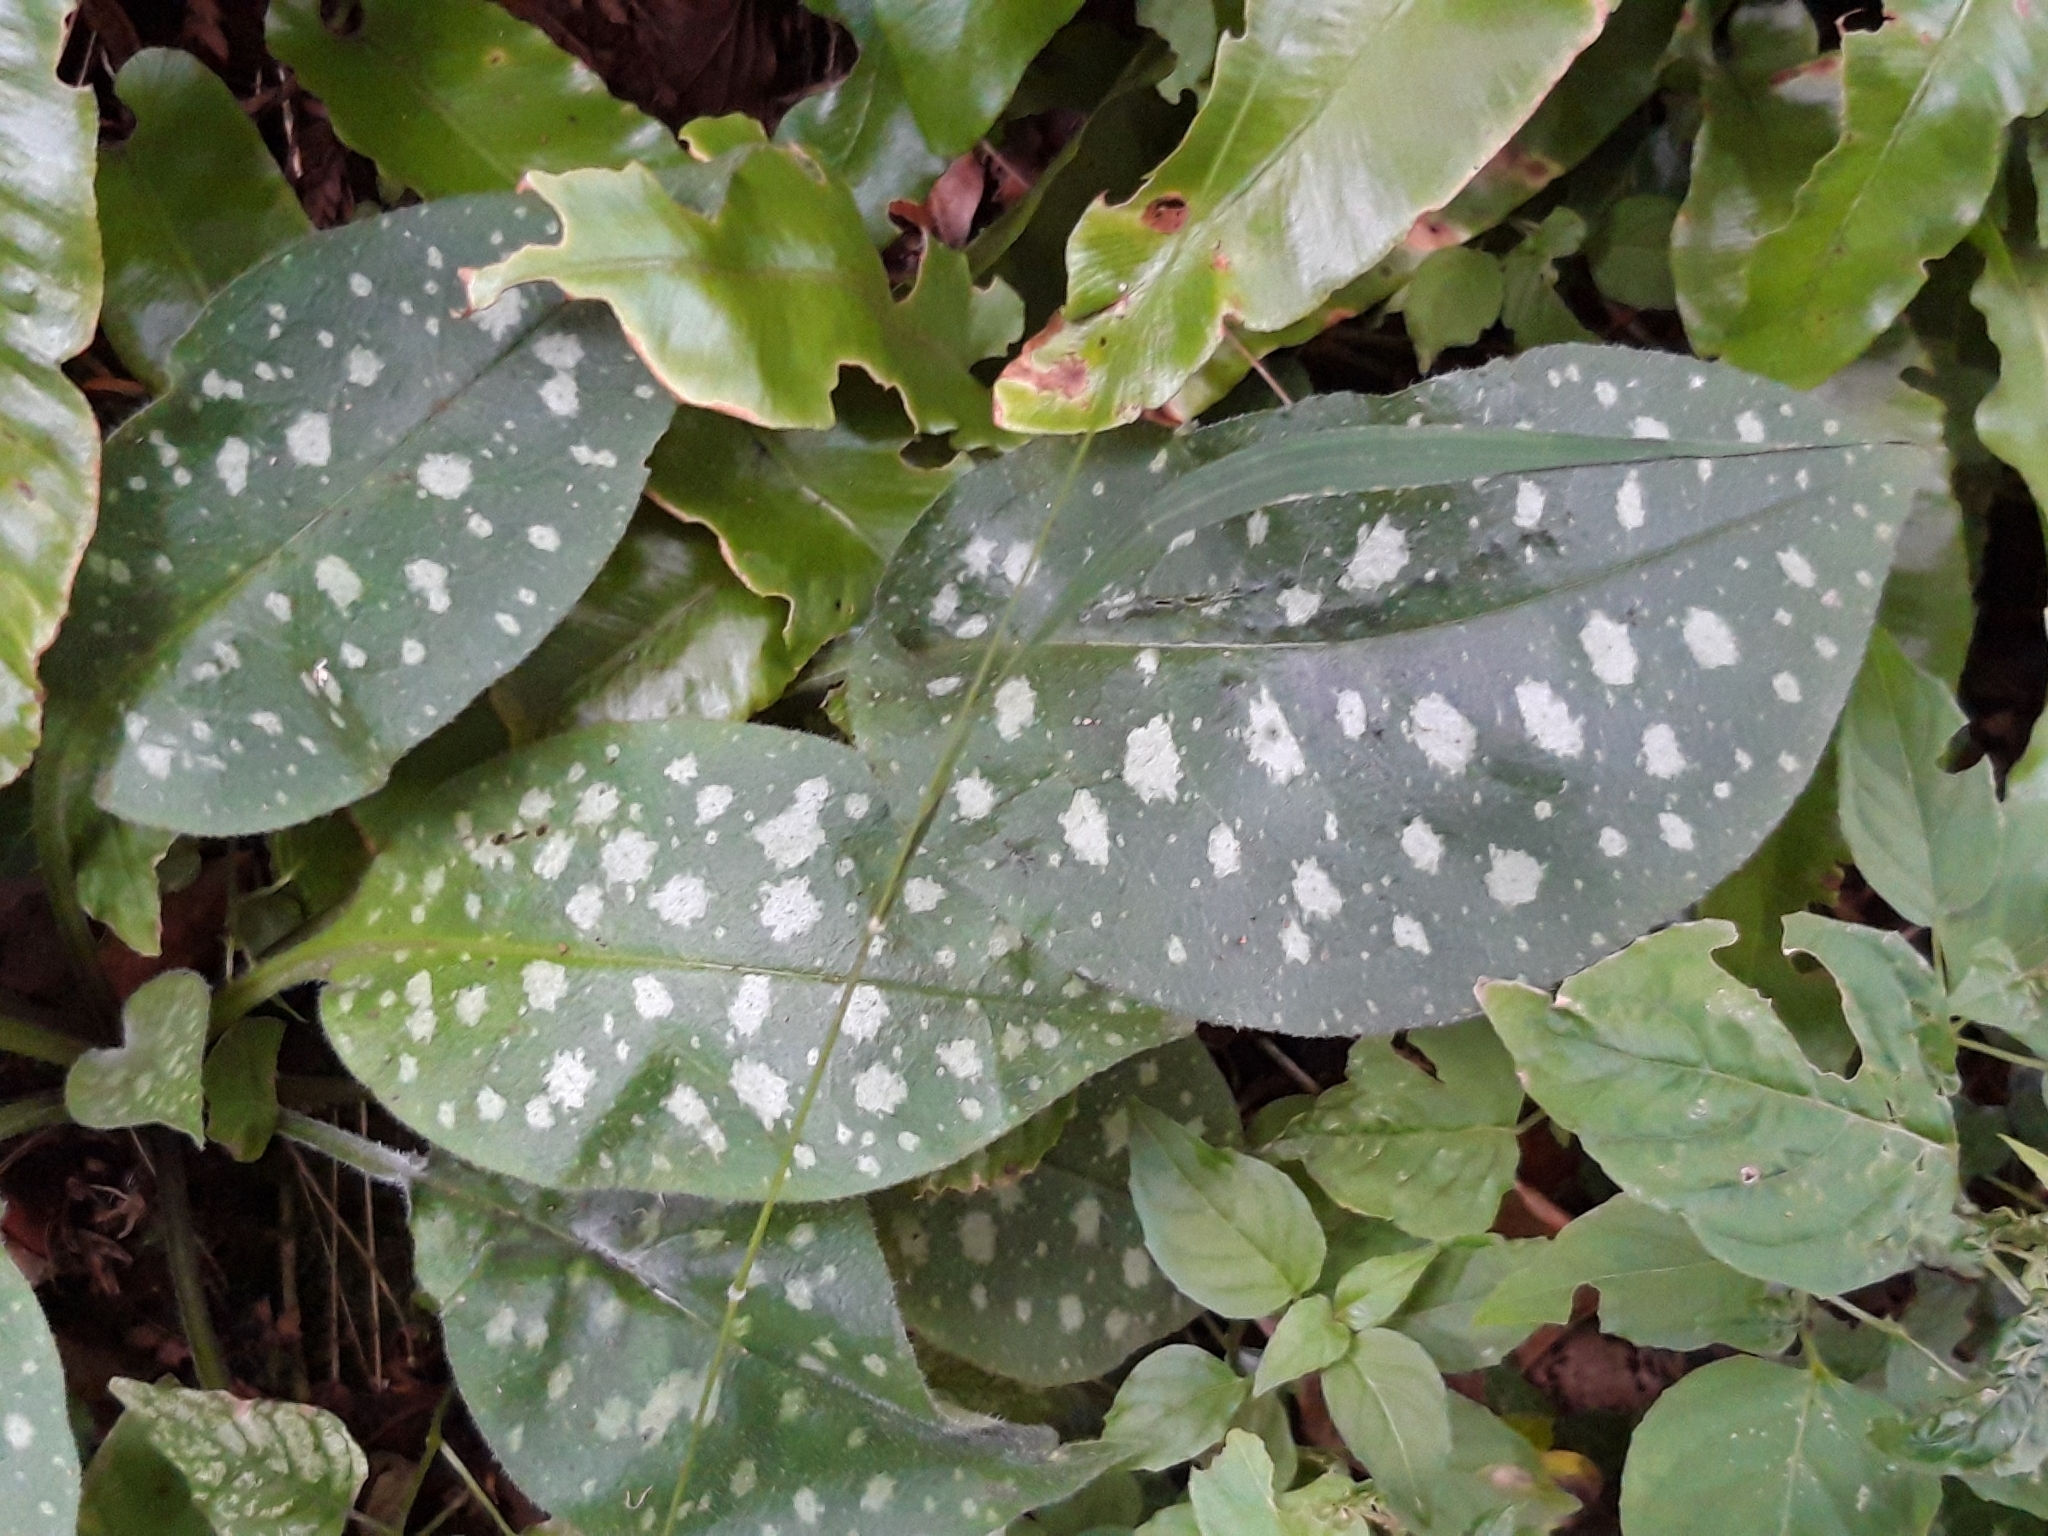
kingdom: Plantae
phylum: Tracheophyta
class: Magnoliopsida
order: Boraginales
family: Boraginaceae
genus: Pulmonaria
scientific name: Pulmonaria officinalis
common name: Lungwort
